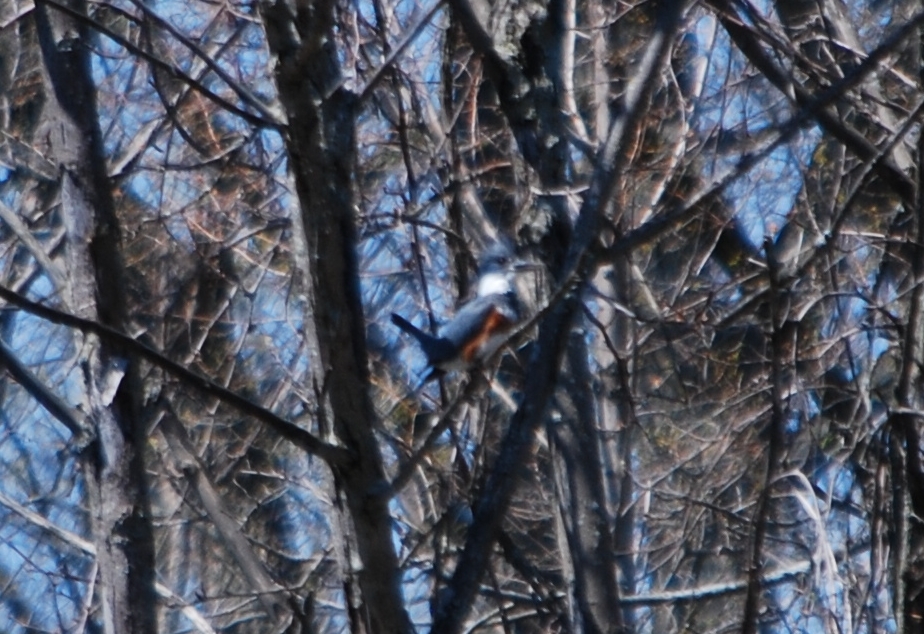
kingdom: Animalia
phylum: Chordata
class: Aves
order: Coraciiformes
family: Alcedinidae
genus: Megaceryle
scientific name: Megaceryle alcyon
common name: Belted kingfisher
